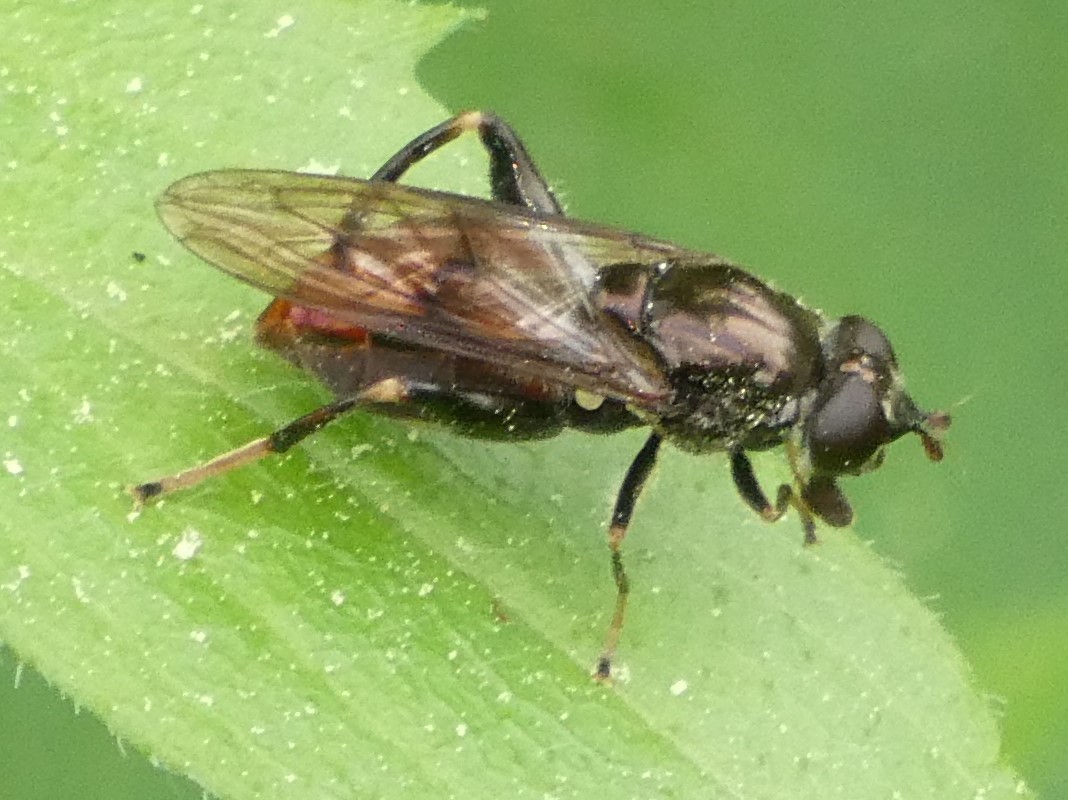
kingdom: Animalia
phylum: Arthropoda
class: Insecta
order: Diptera
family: Syrphidae
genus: Chalcosyrphus
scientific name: Chalcosyrphus libo
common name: Long-haired forest fly
